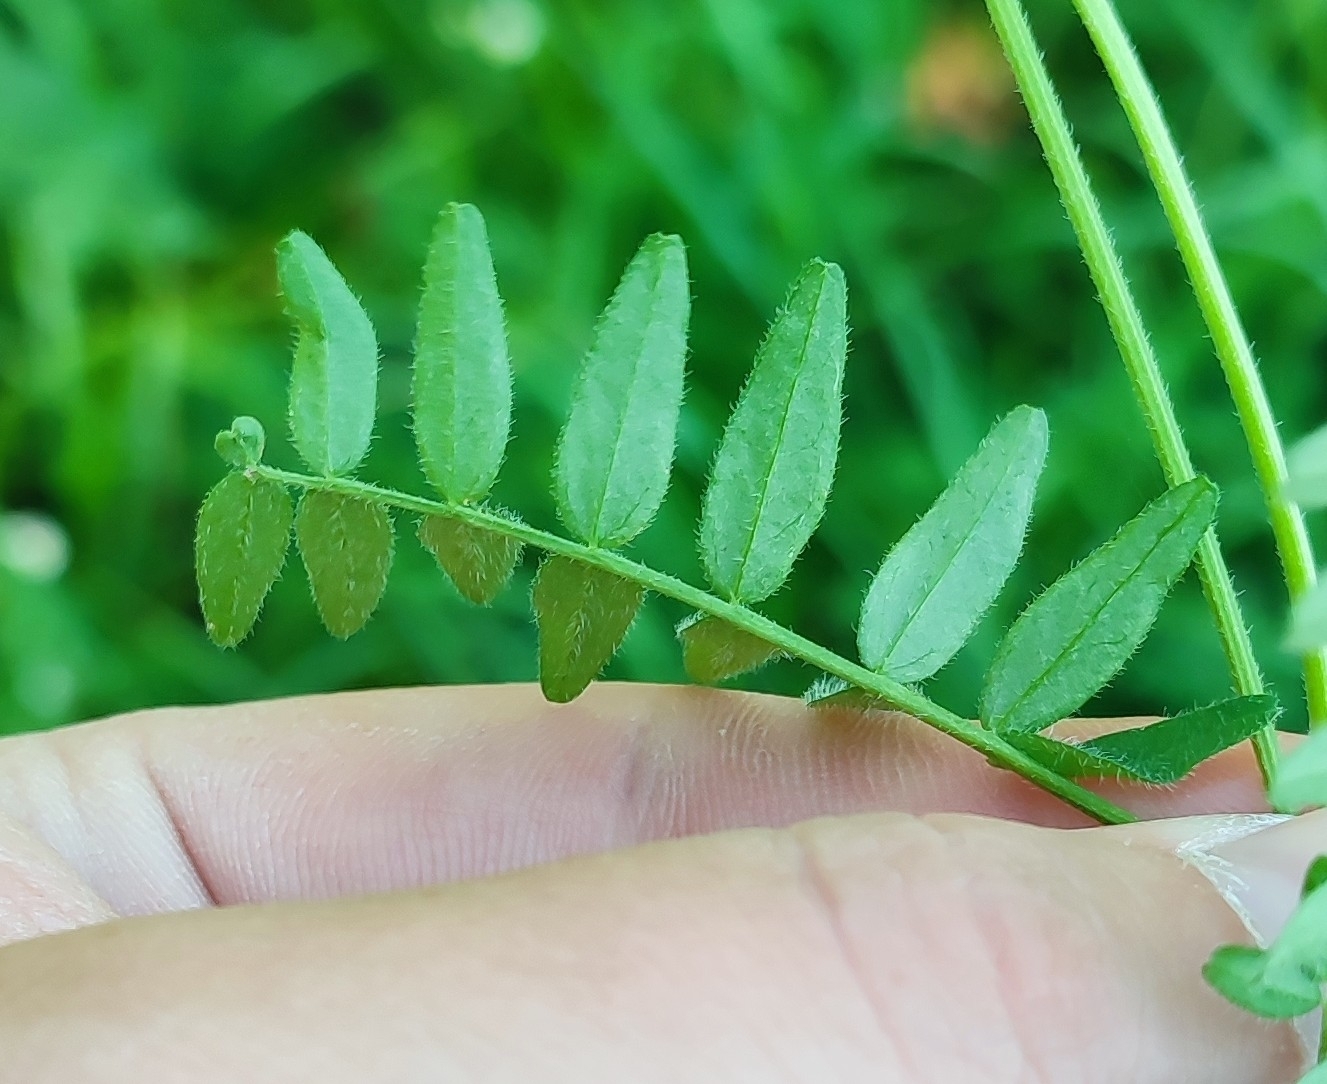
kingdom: Plantae
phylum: Tracheophyta
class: Magnoliopsida
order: Fabales
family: Fabaceae
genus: Astragalus
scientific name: Astragalus danicus
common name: Purple milk-vetch
